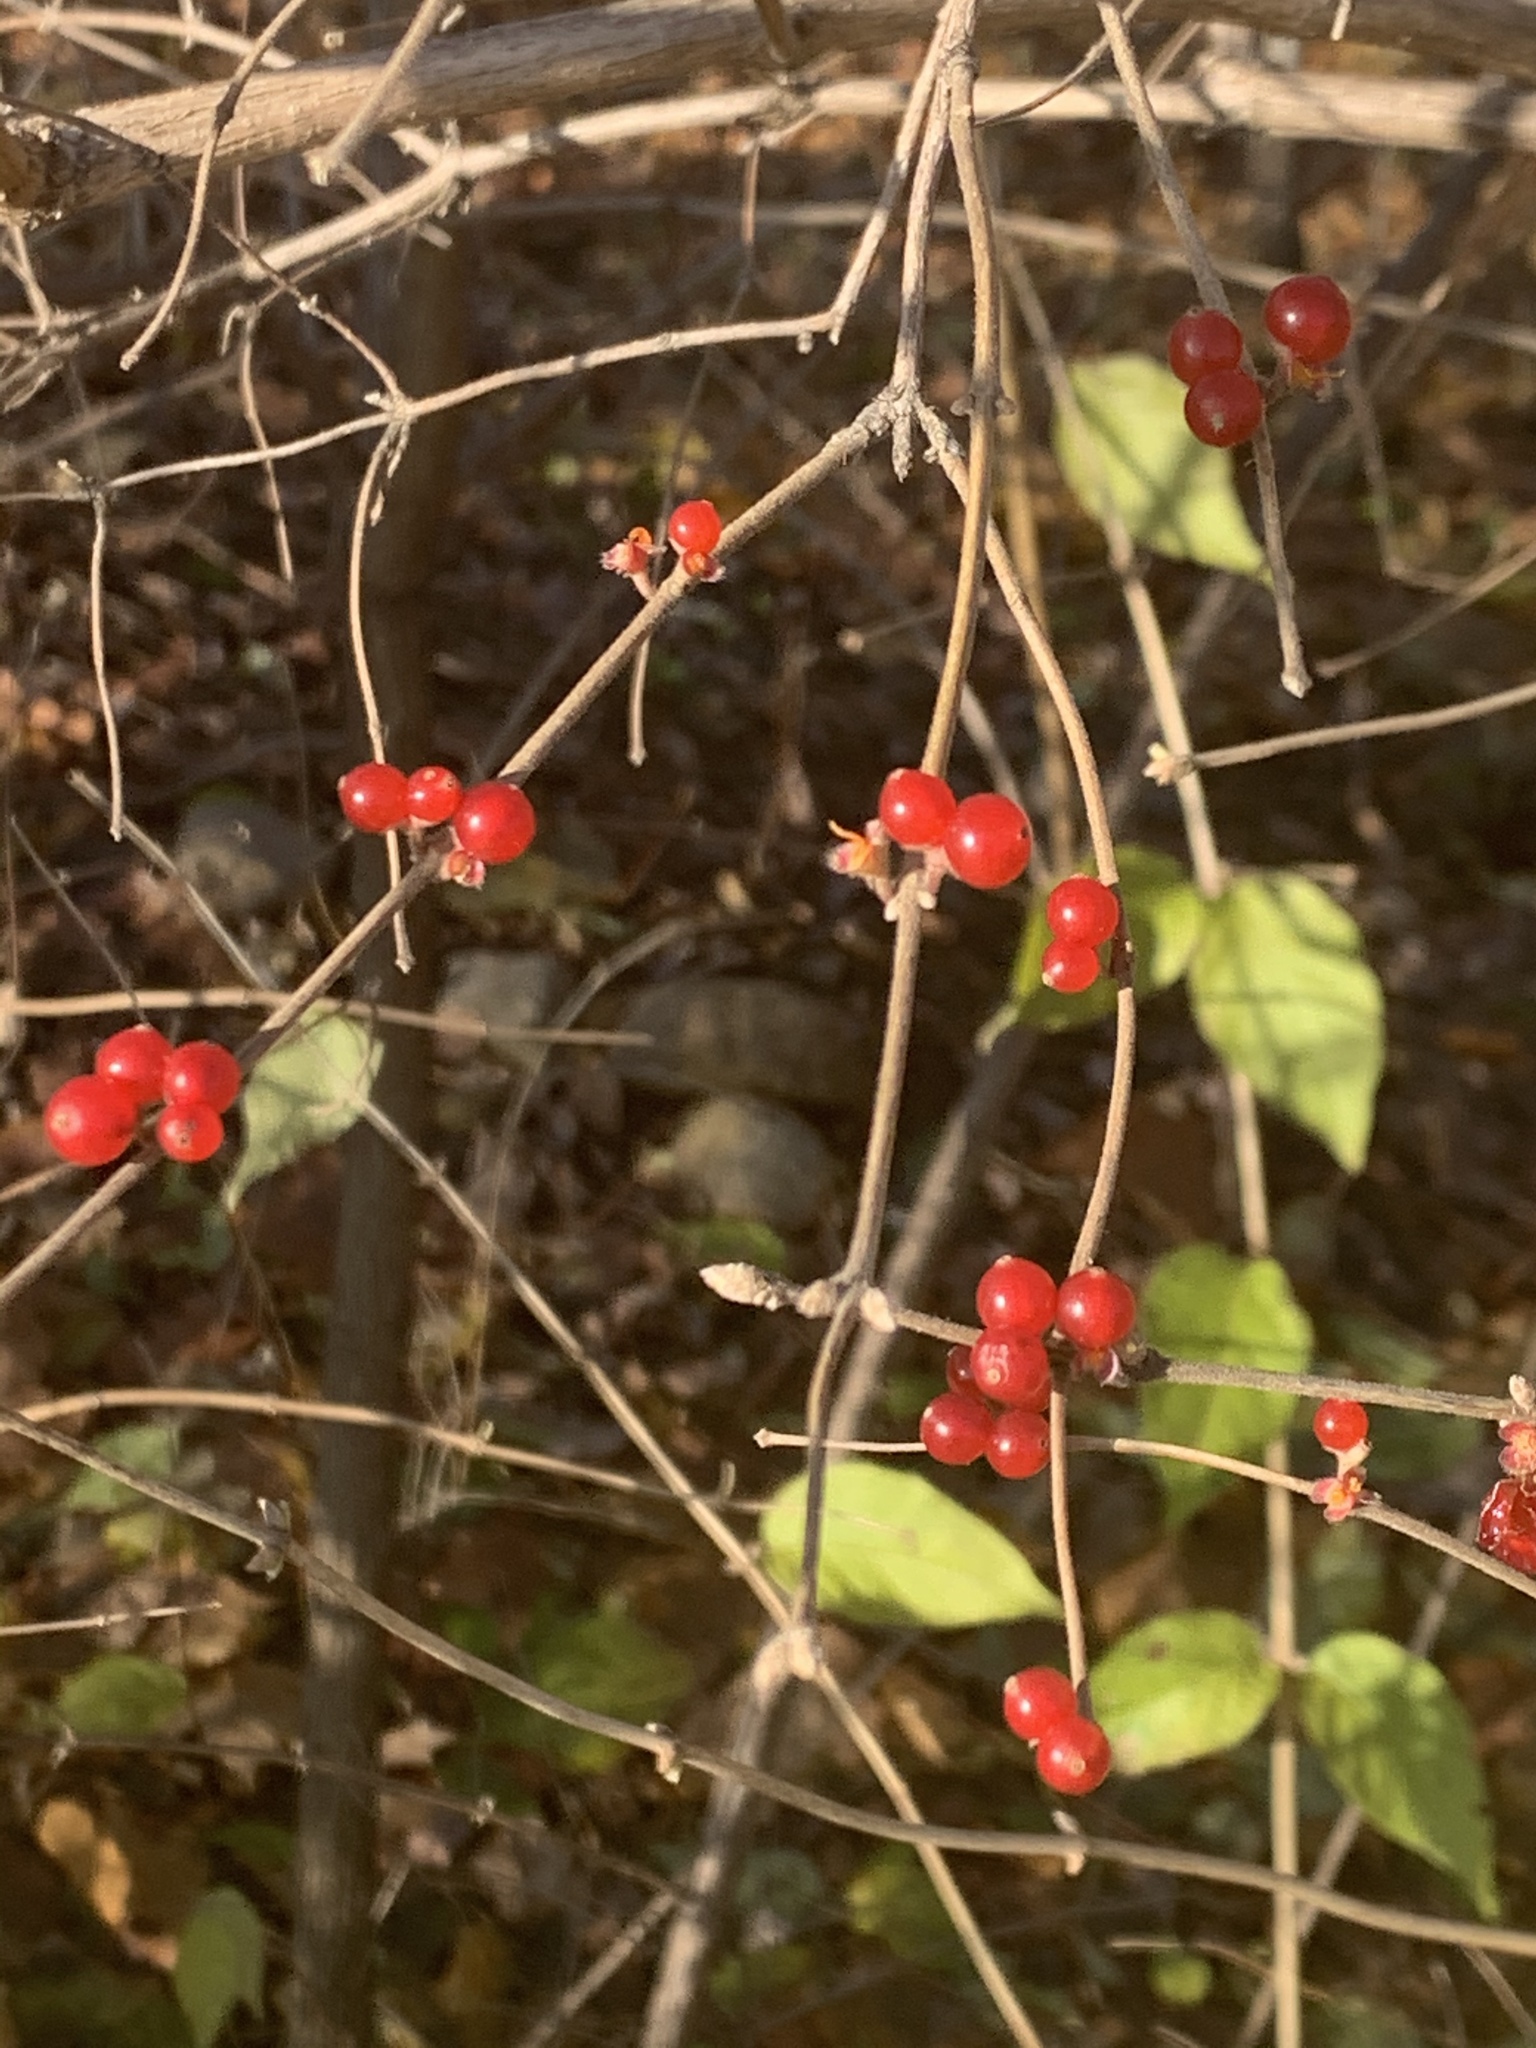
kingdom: Plantae
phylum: Tracheophyta
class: Magnoliopsida
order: Dipsacales
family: Caprifoliaceae
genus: Lonicera
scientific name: Lonicera maackii
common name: Amur honeysuckle
